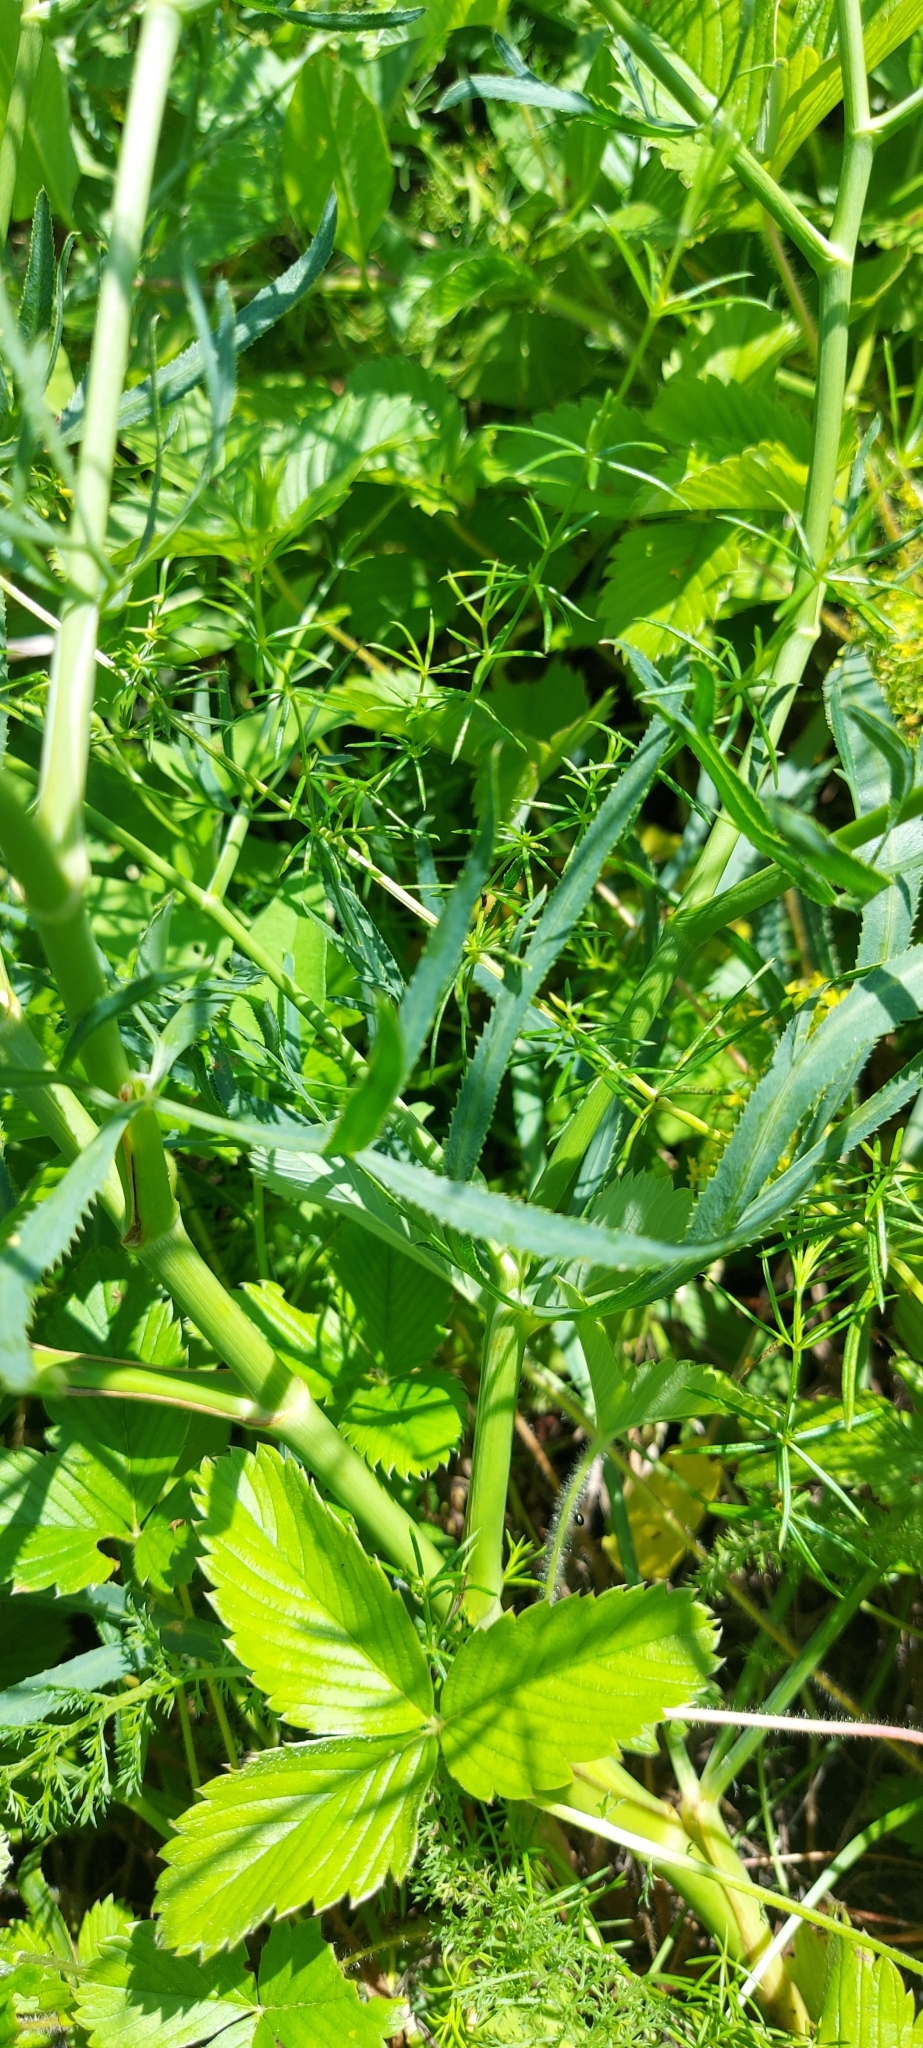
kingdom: Plantae
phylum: Tracheophyta
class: Magnoliopsida
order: Apiales
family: Apiaceae
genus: Falcaria
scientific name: Falcaria vulgaris
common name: Longleaf
